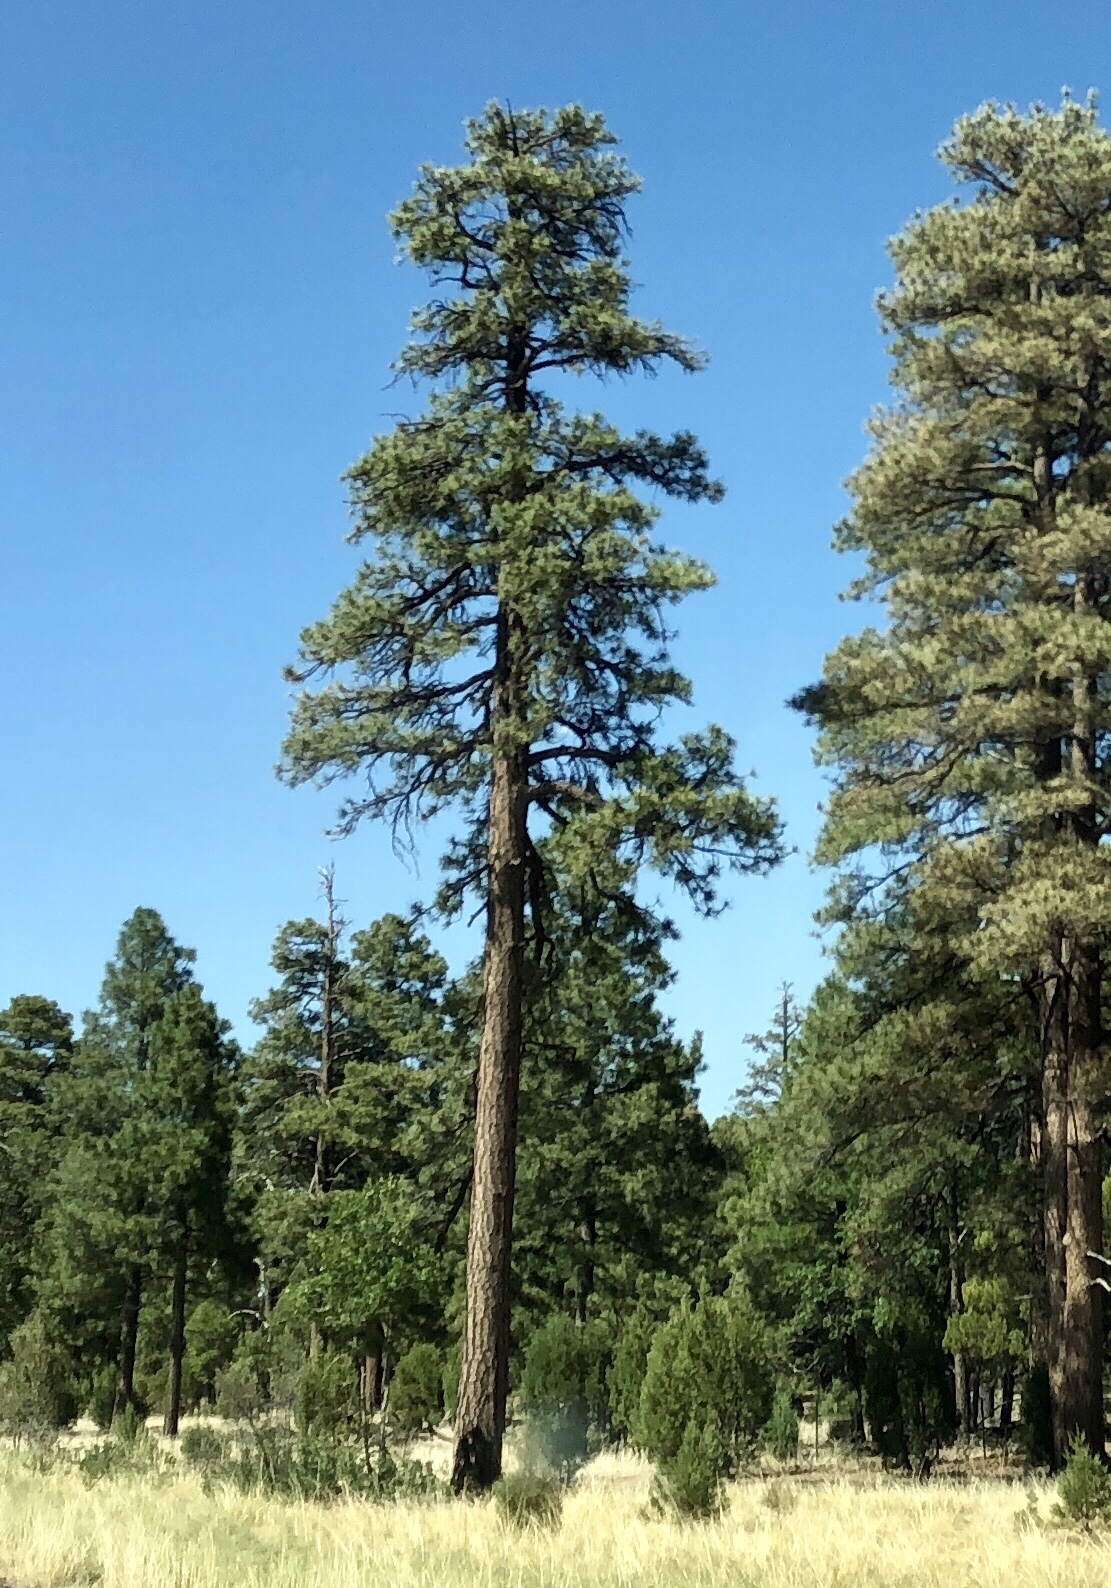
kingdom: Plantae
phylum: Tracheophyta
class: Pinopsida
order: Pinales
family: Pinaceae
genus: Pinus
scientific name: Pinus ponderosa
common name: Western yellow-pine
